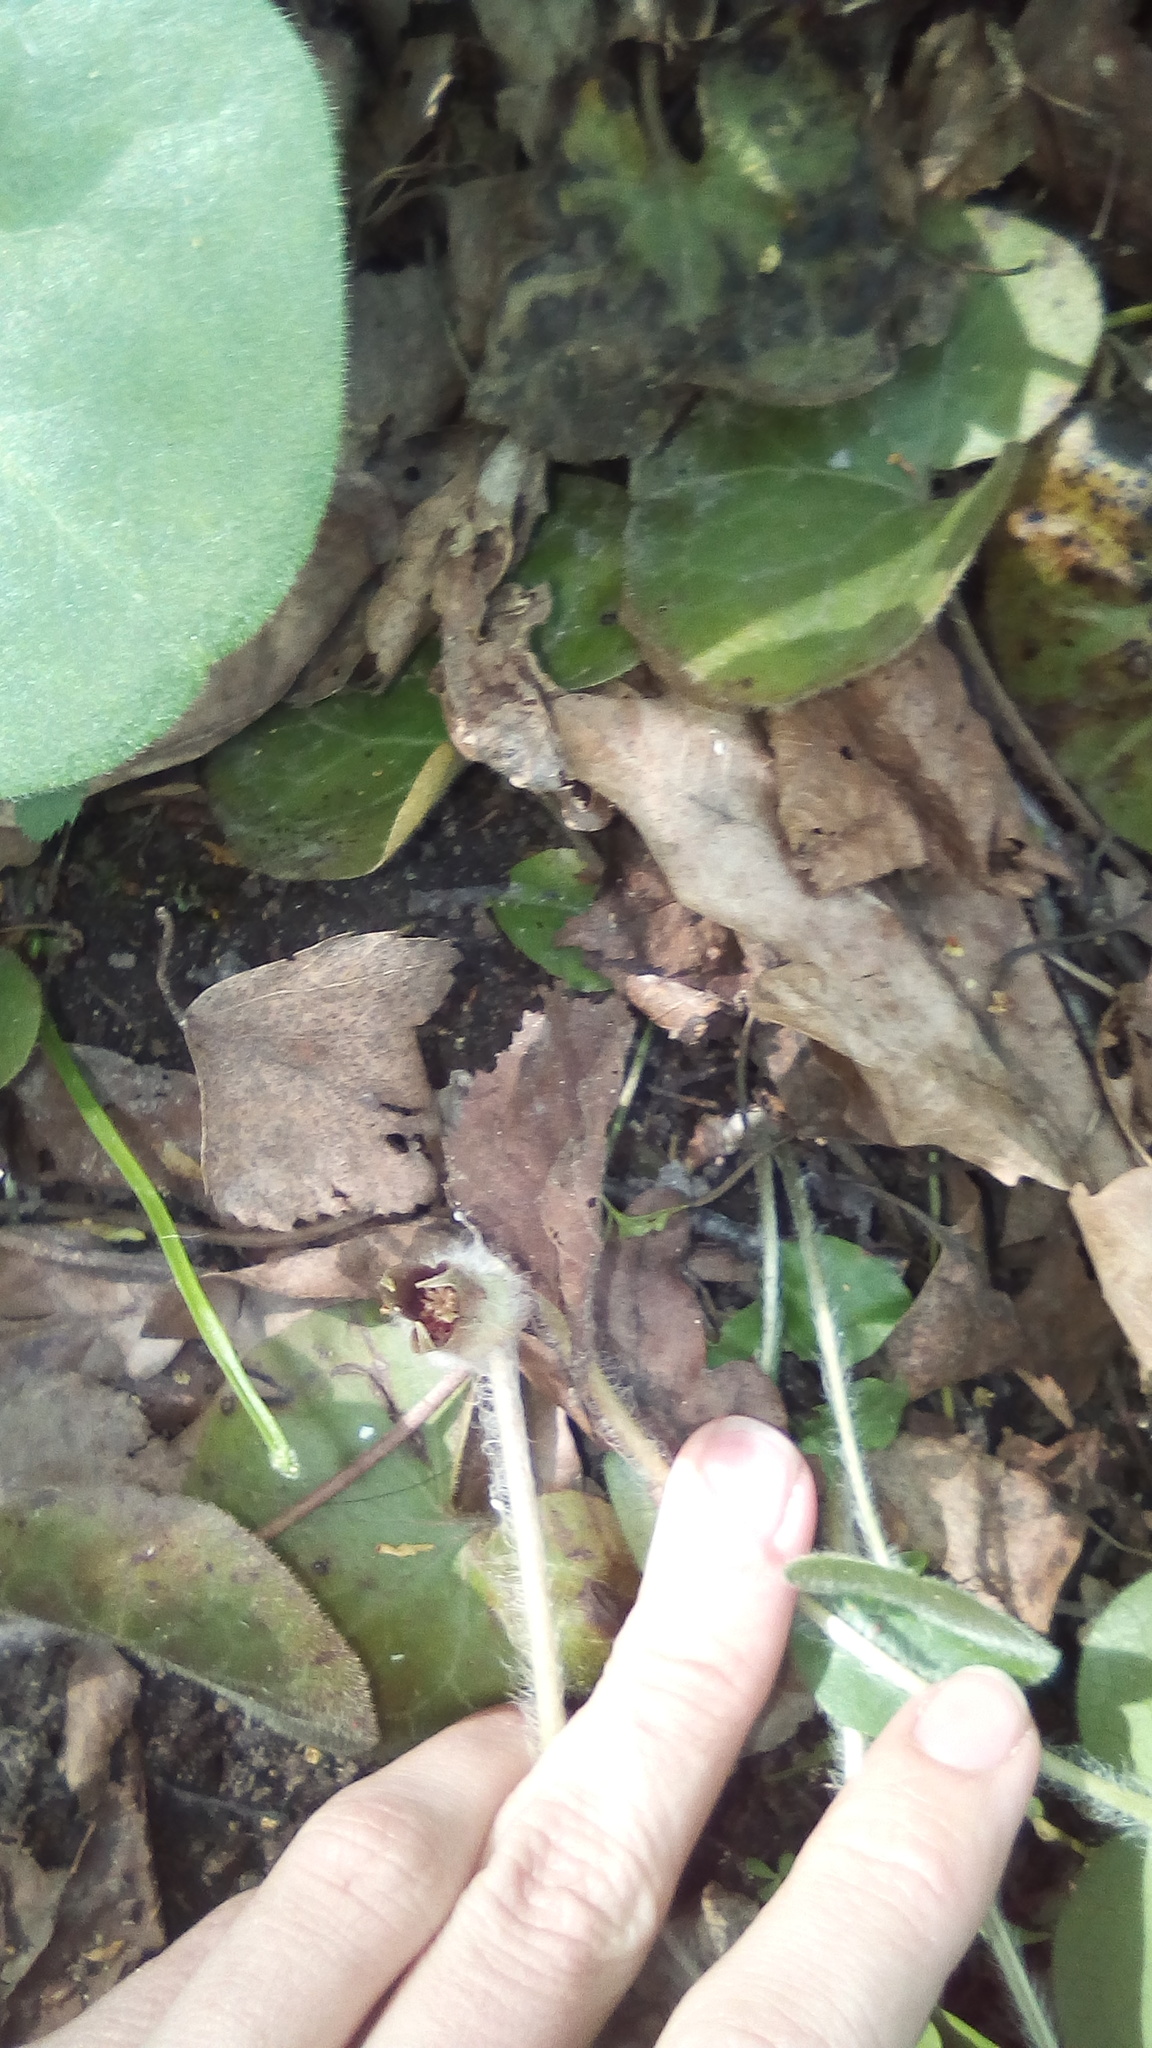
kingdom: Plantae
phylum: Tracheophyta
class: Magnoliopsida
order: Piperales
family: Aristolochiaceae
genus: Asarum
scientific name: Asarum europaeum
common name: Asarabacca
